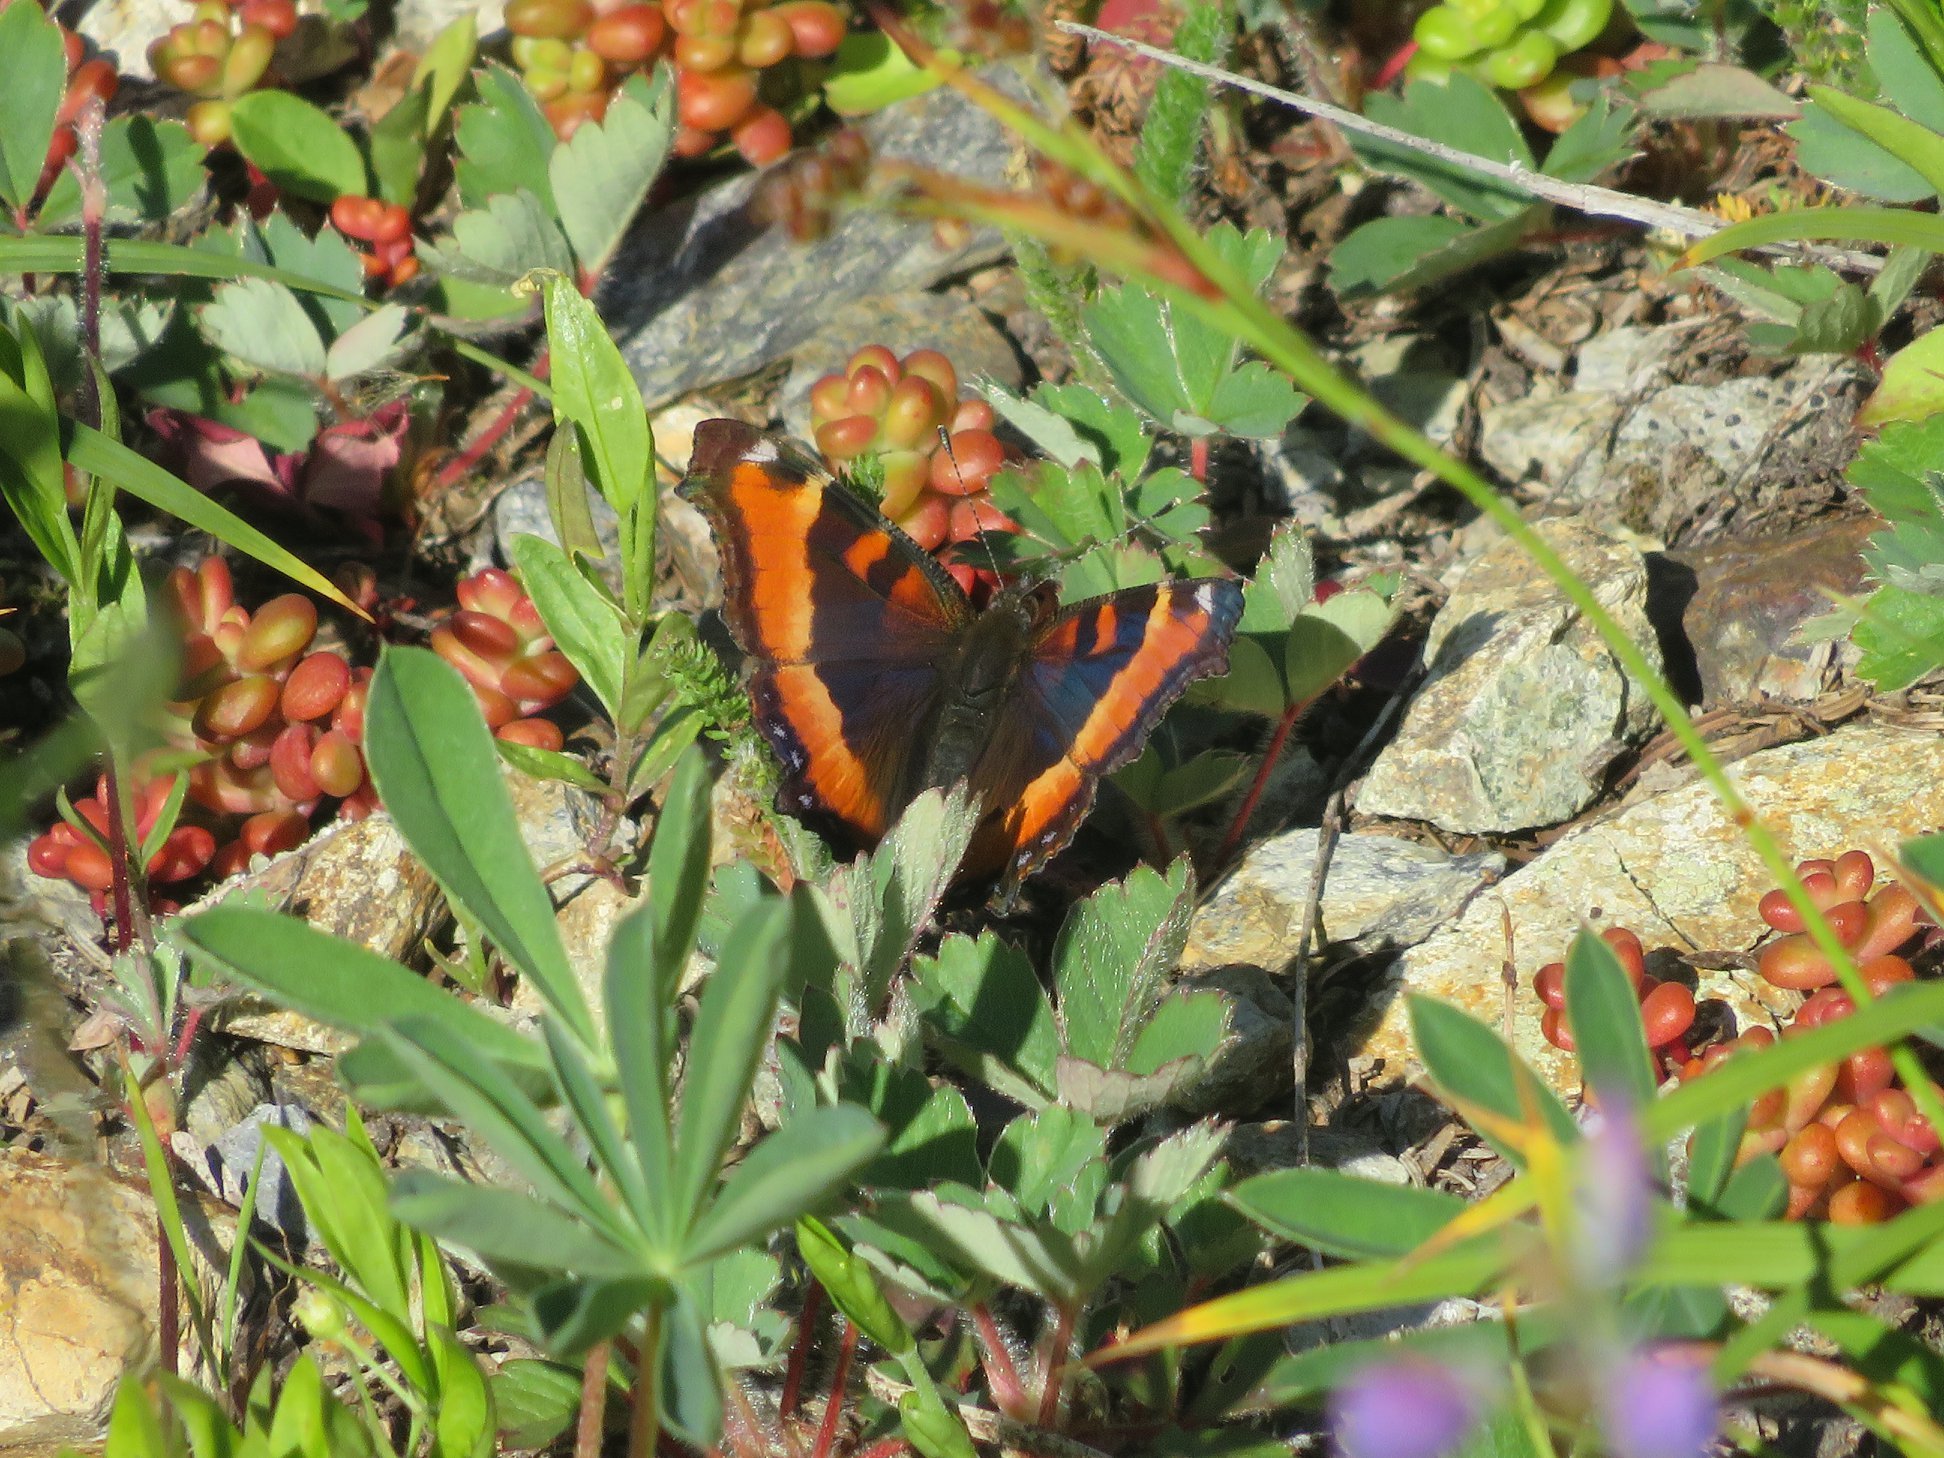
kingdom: Animalia
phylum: Arthropoda
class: Insecta
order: Lepidoptera
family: Nymphalidae
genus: Aglais
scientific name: Aglais milberti
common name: Milbert's tortoiseshell
